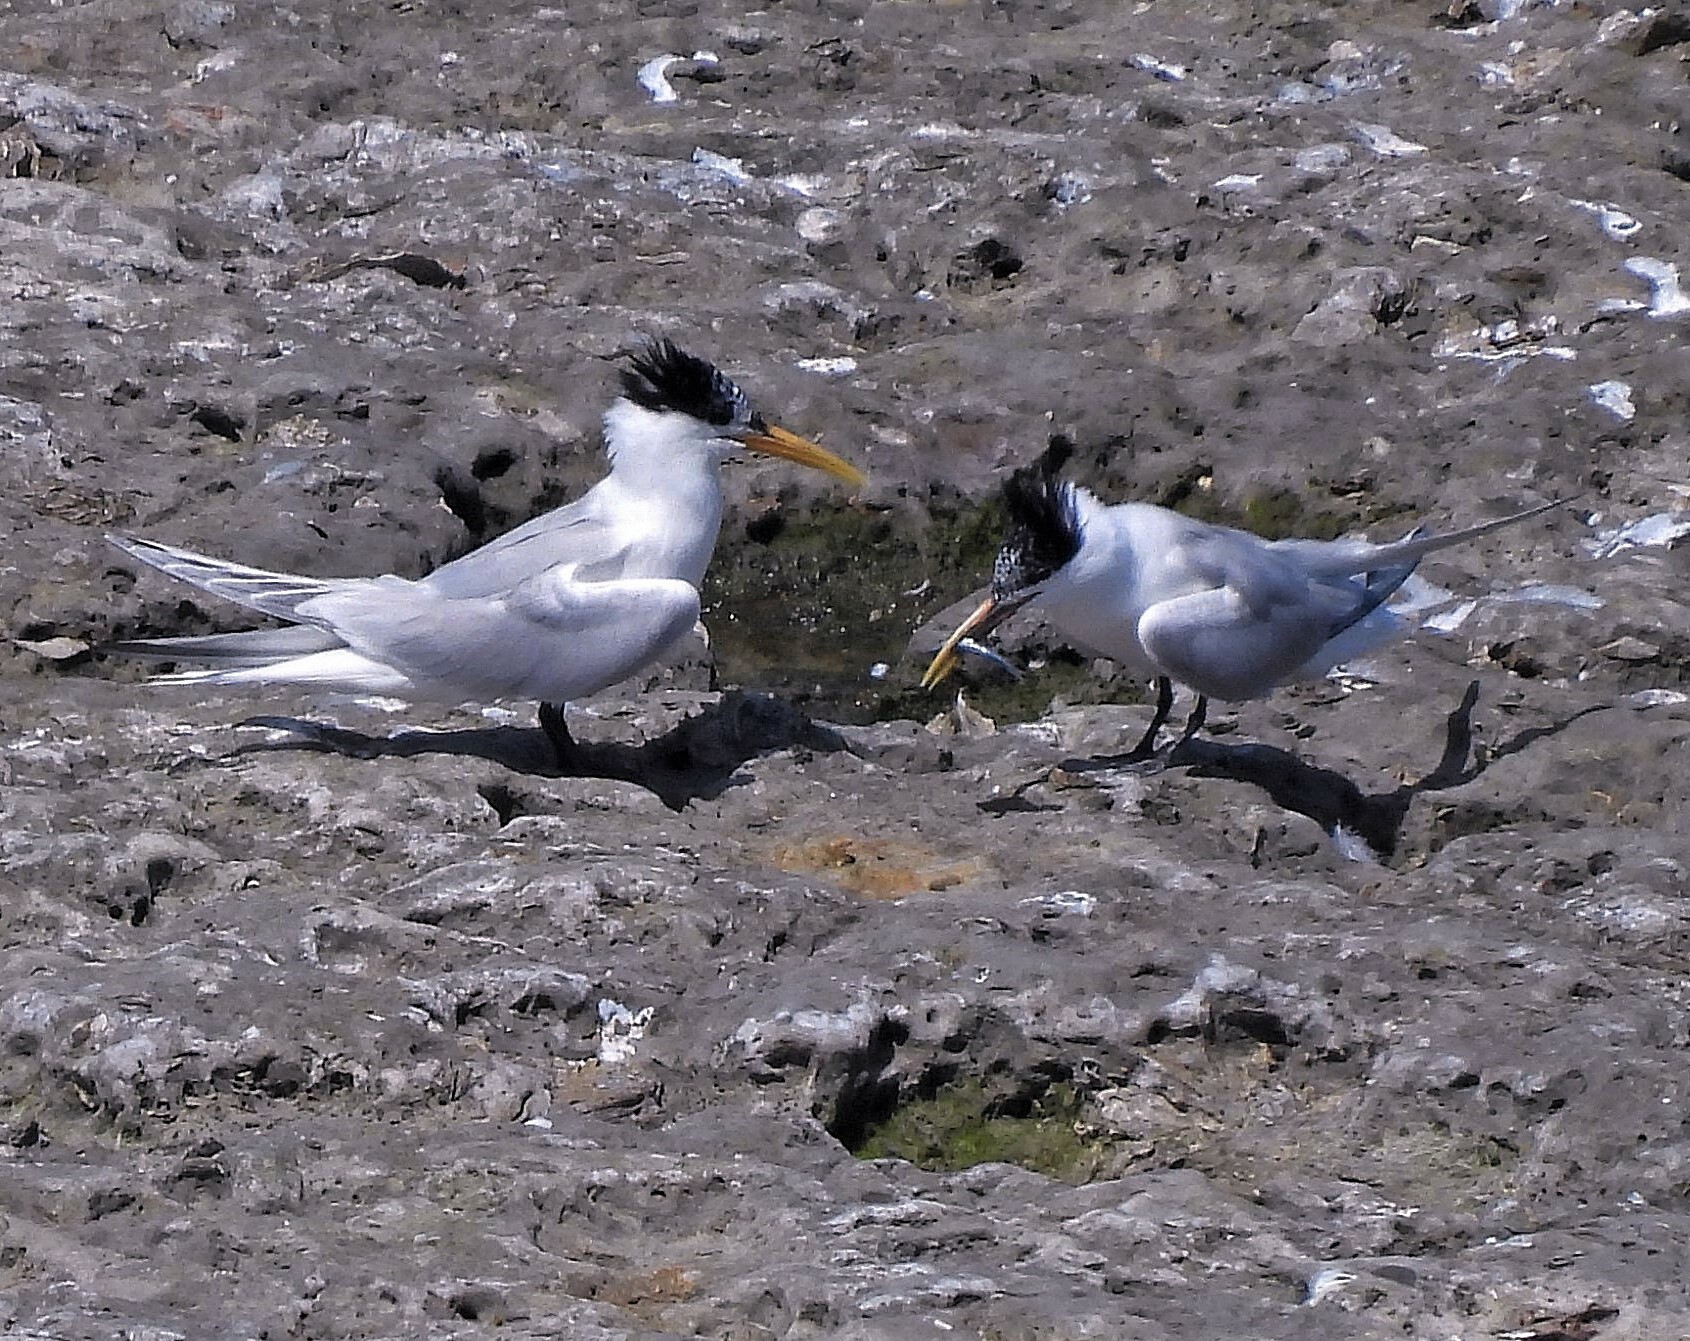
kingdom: Animalia
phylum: Chordata
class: Aves
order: Charadriiformes
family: Laridae
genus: Thalasseus
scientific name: Thalasseus acuflavidus
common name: Cabot's tern
